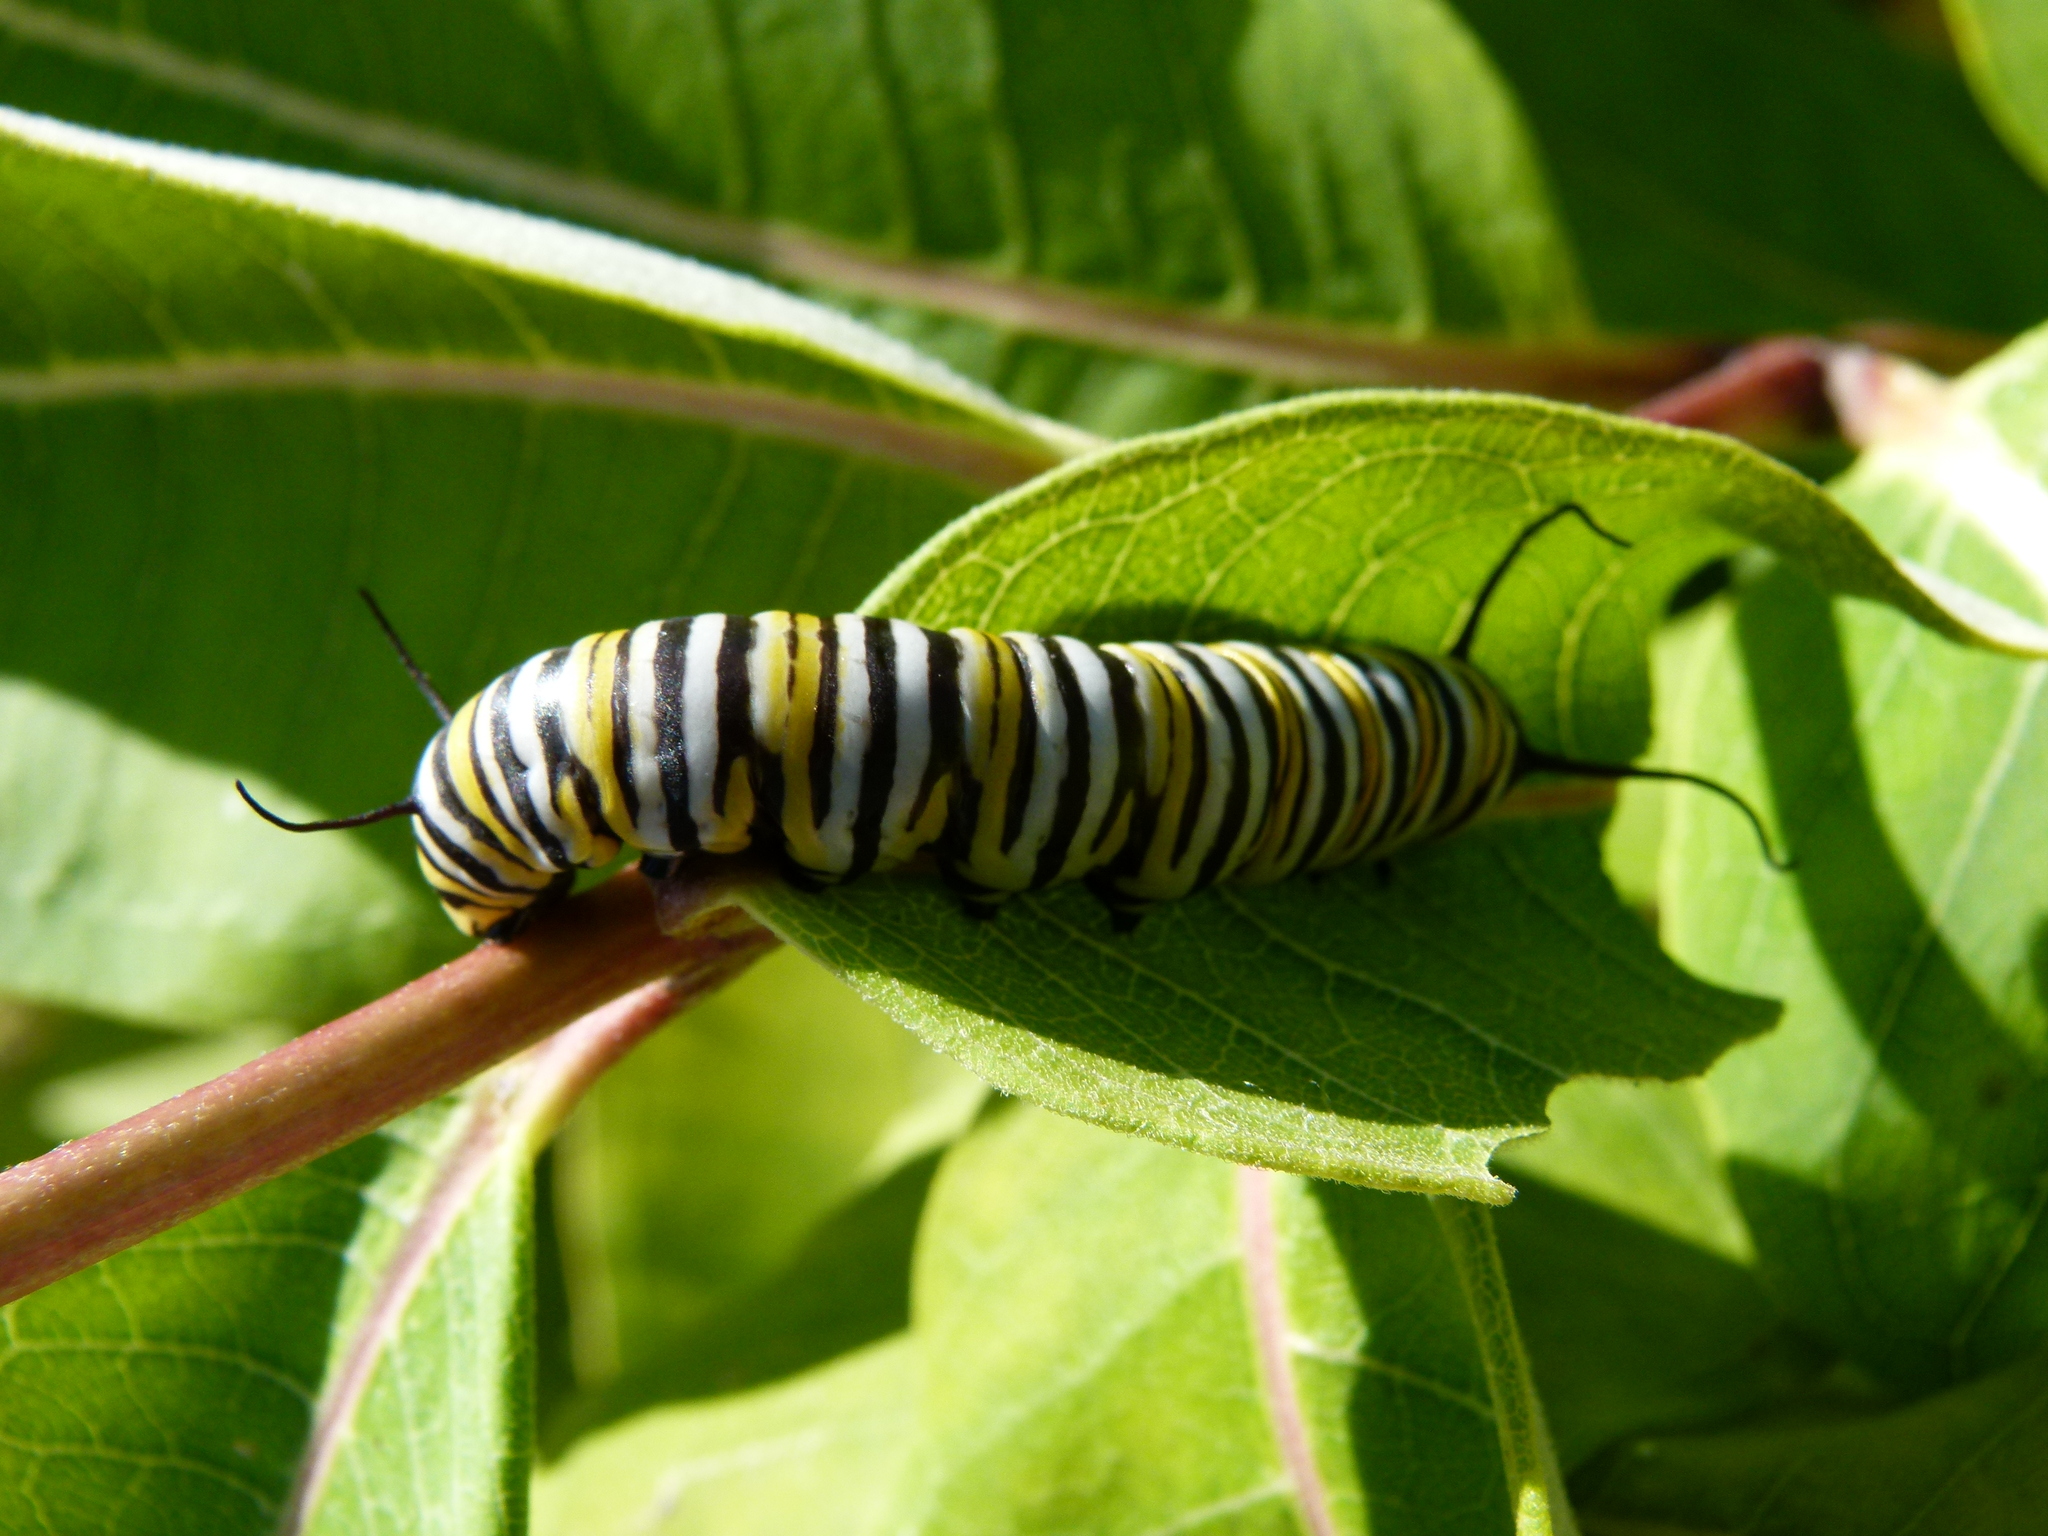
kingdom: Animalia
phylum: Arthropoda
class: Insecta
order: Lepidoptera
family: Nymphalidae
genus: Danaus
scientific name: Danaus plexippus
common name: Monarch
